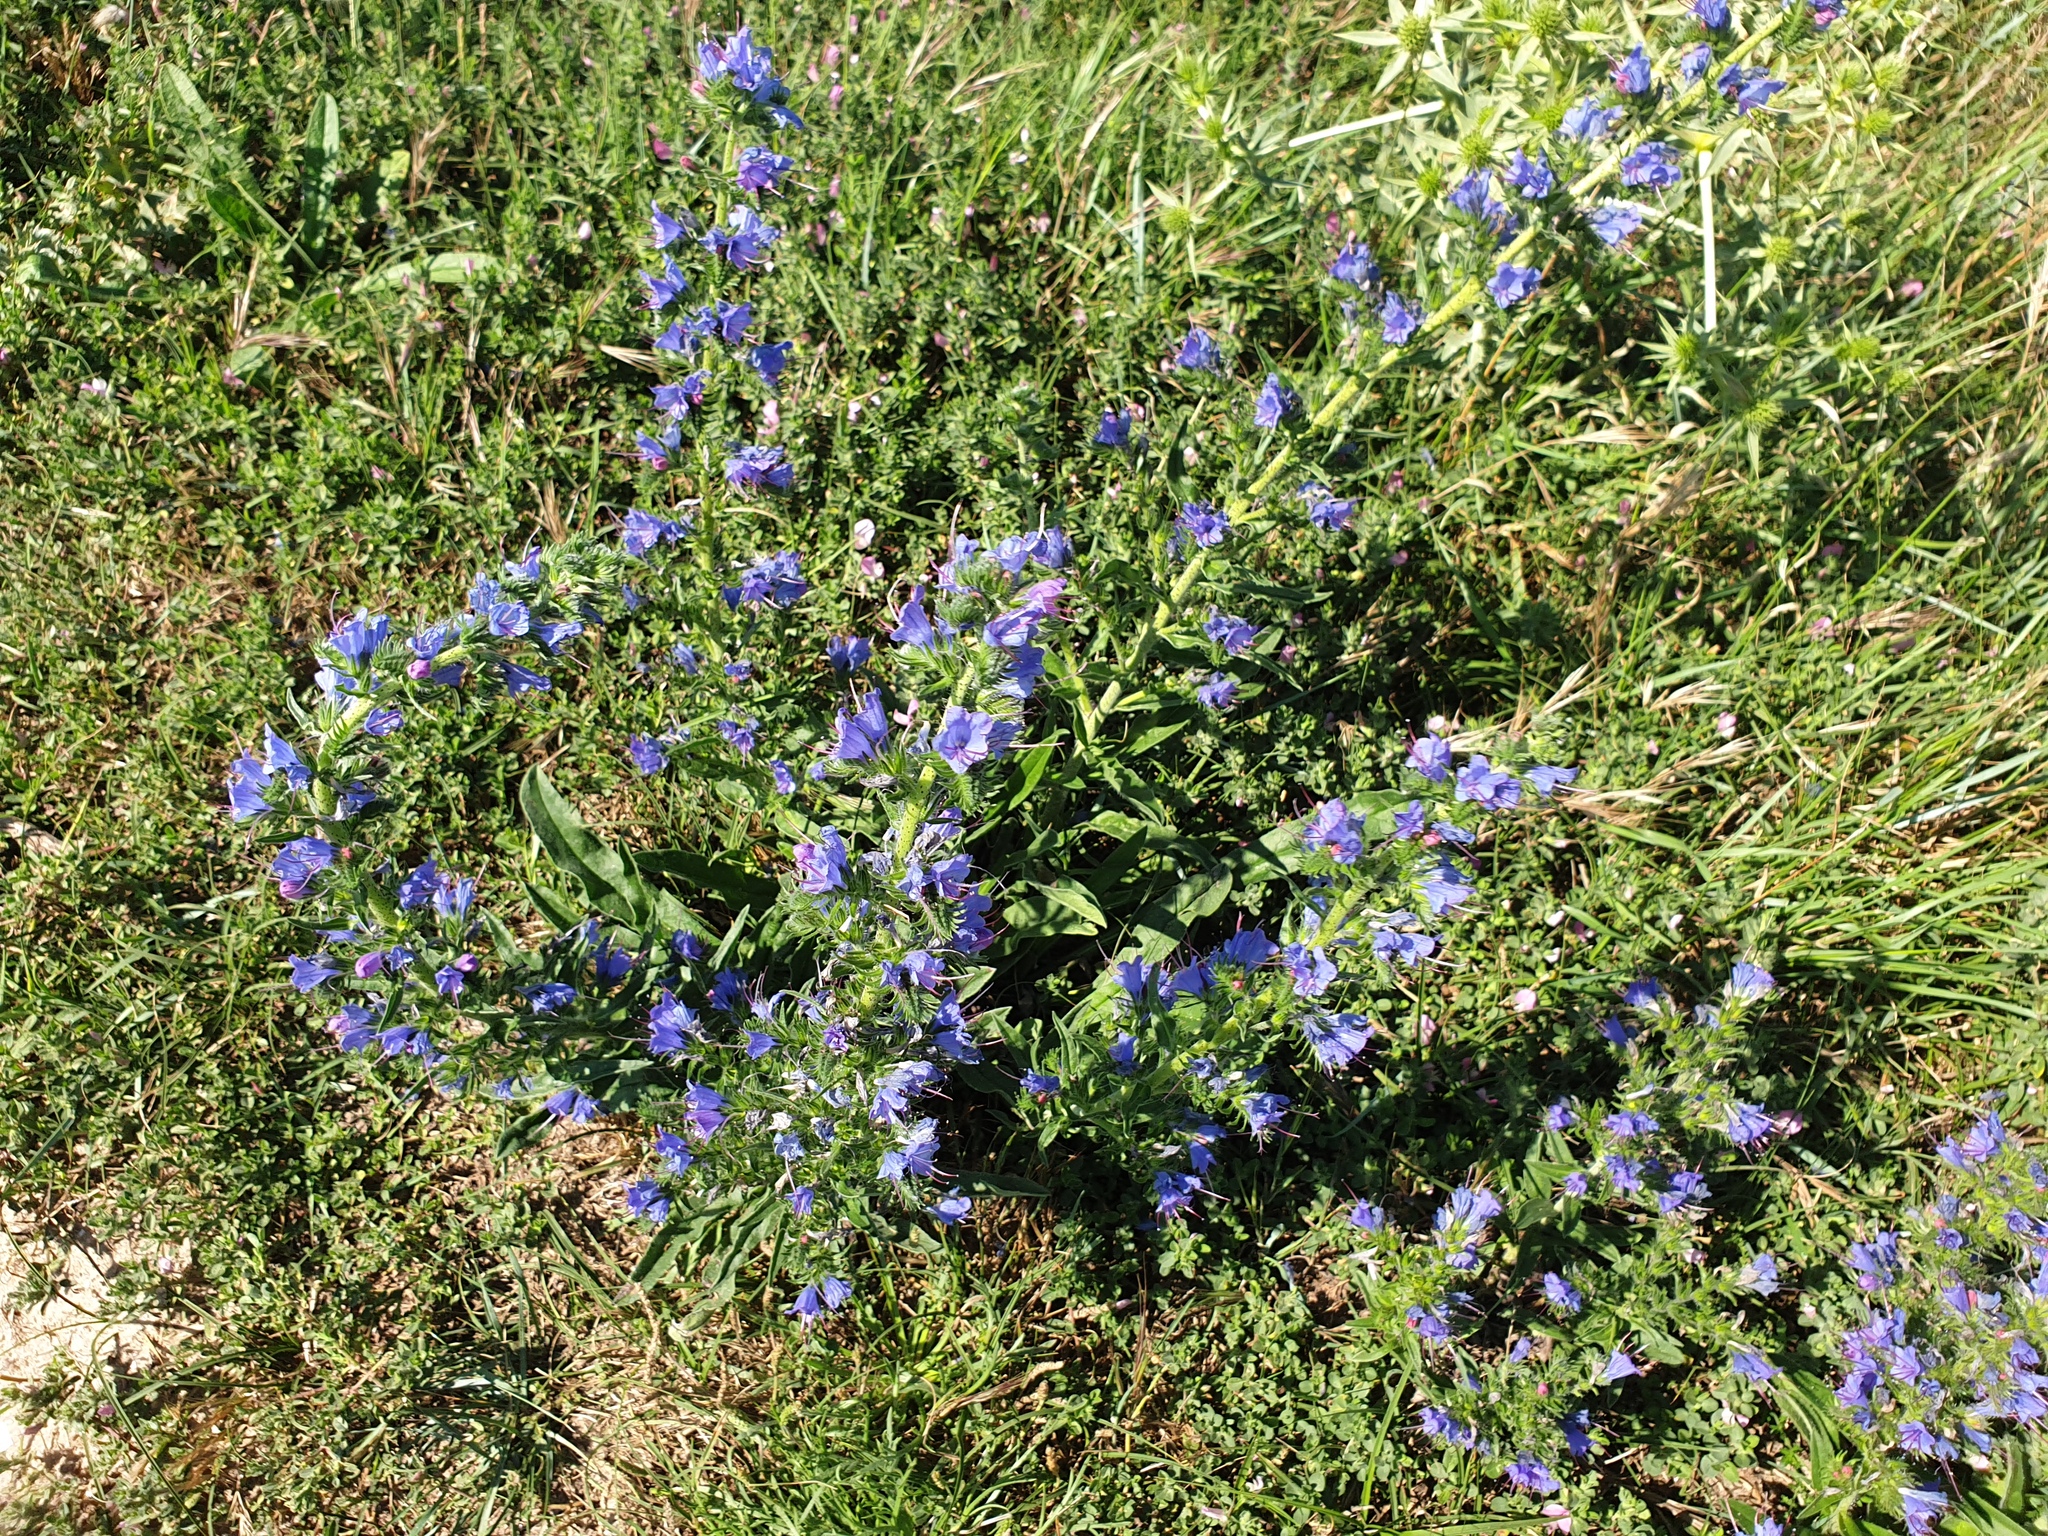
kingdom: Plantae
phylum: Tracheophyta
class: Magnoliopsida
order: Boraginales
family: Boraginaceae
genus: Echium
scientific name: Echium vulgare
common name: Common viper's bugloss
